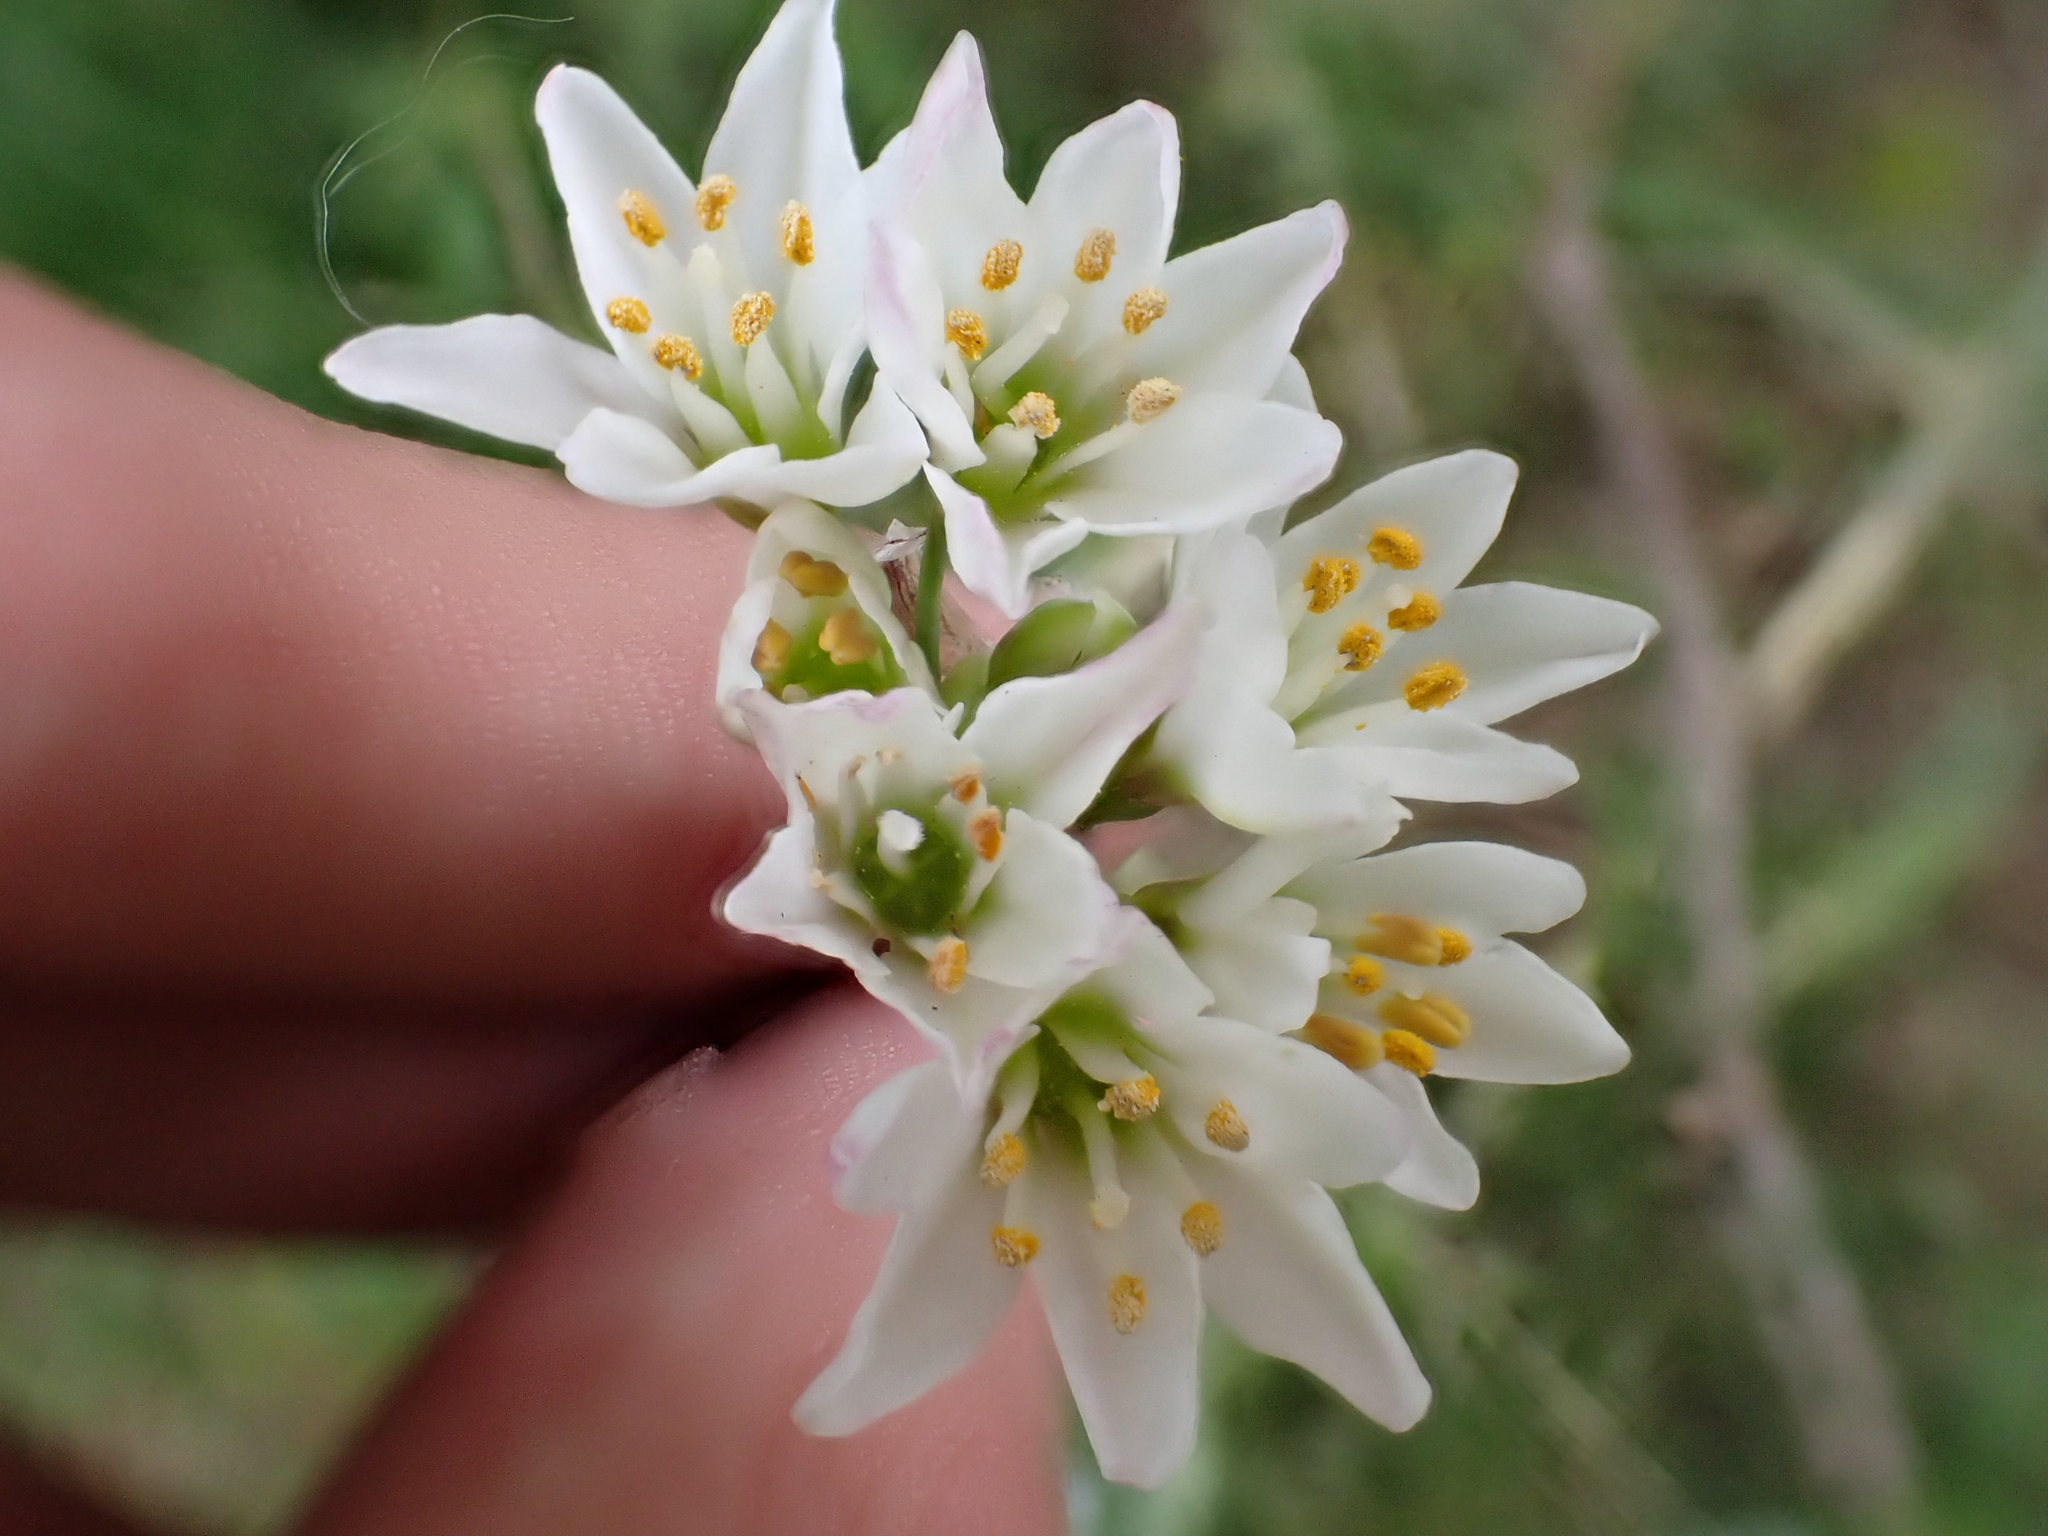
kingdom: Plantae
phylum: Tracheophyta
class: Liliopsida
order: Asparagales
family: Amaryllidaceae
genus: Nothoscordum
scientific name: Nothoscordum bivalve
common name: Crow-poison
